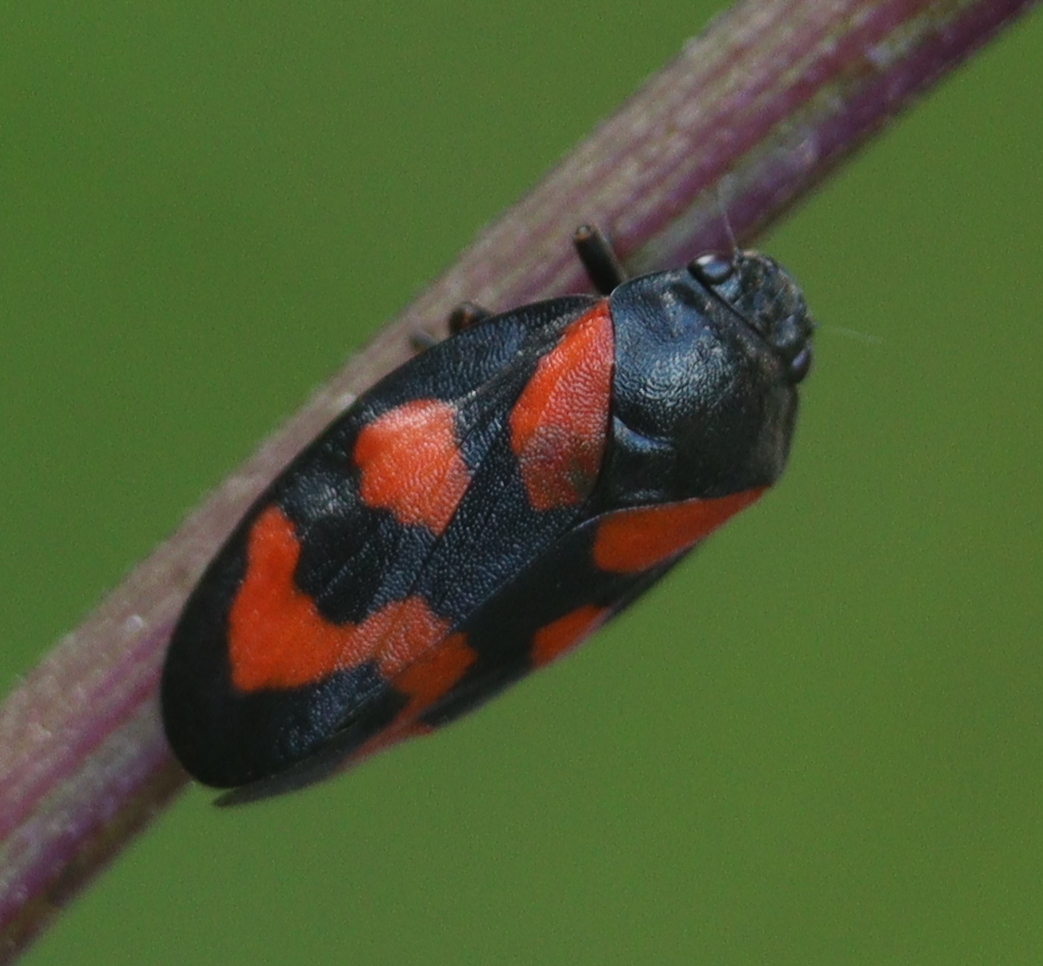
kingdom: Animalia
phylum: Arthropoda
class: Insecta
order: Hemiptera
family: Cercopidae
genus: Cercopis
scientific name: Cercopis vulnerata
